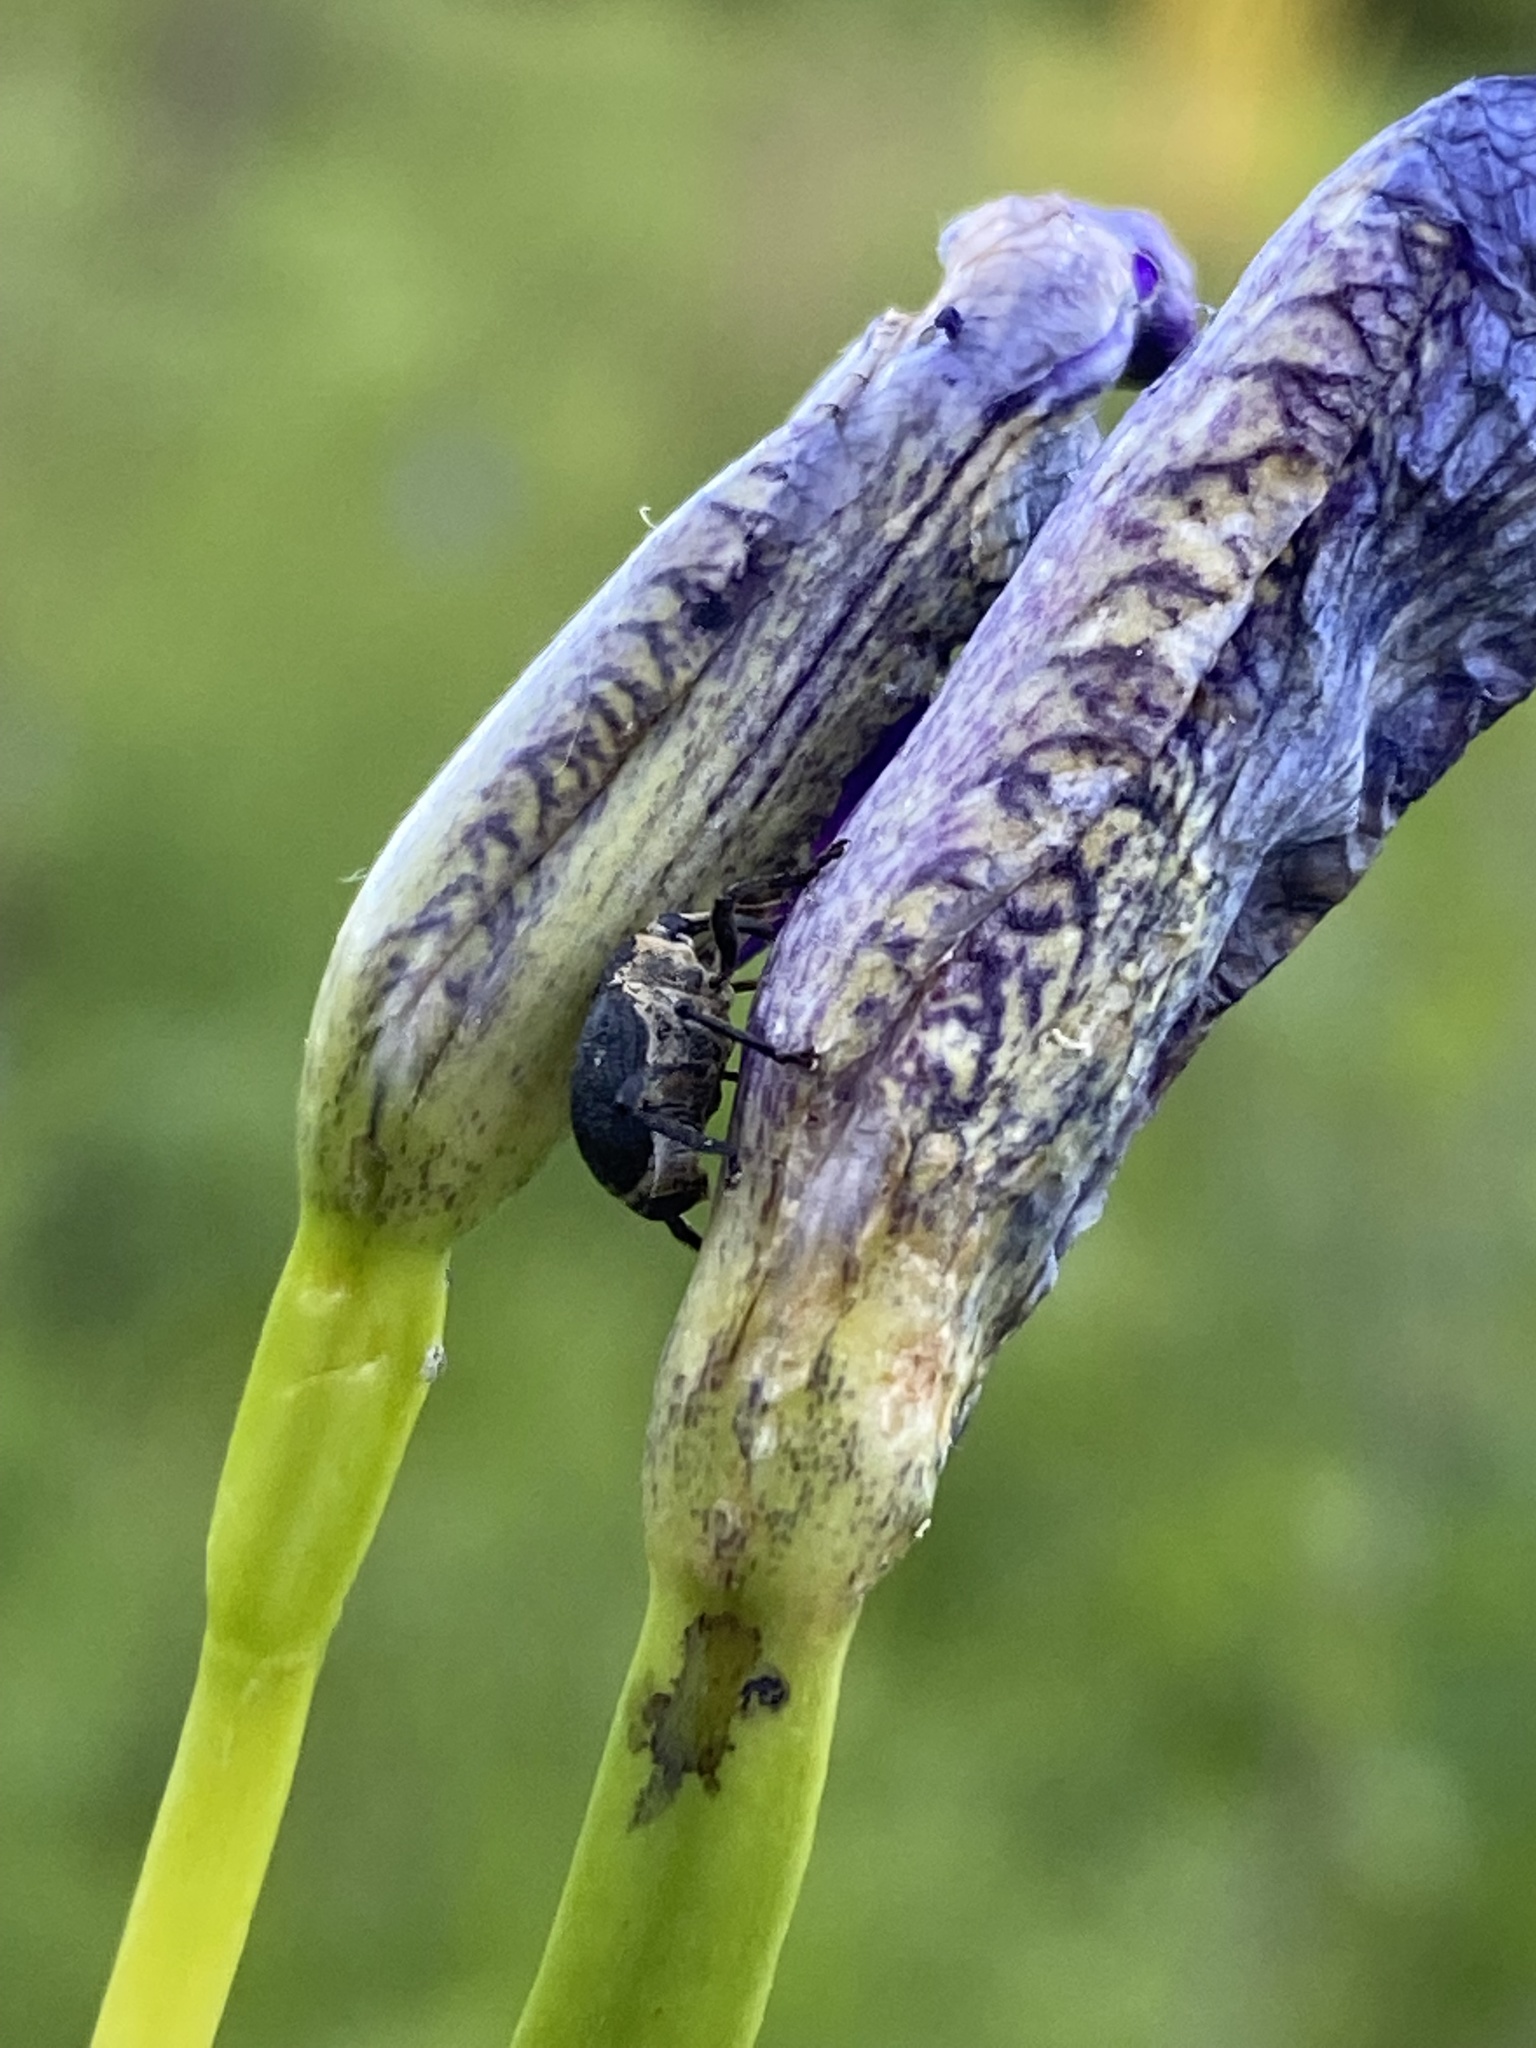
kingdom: Animalia
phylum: Arthropoda
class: Insecta
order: Coleoptera
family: Curculionidae
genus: Mononychus
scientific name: Mononychus punctumalbum
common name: Iris weevil
